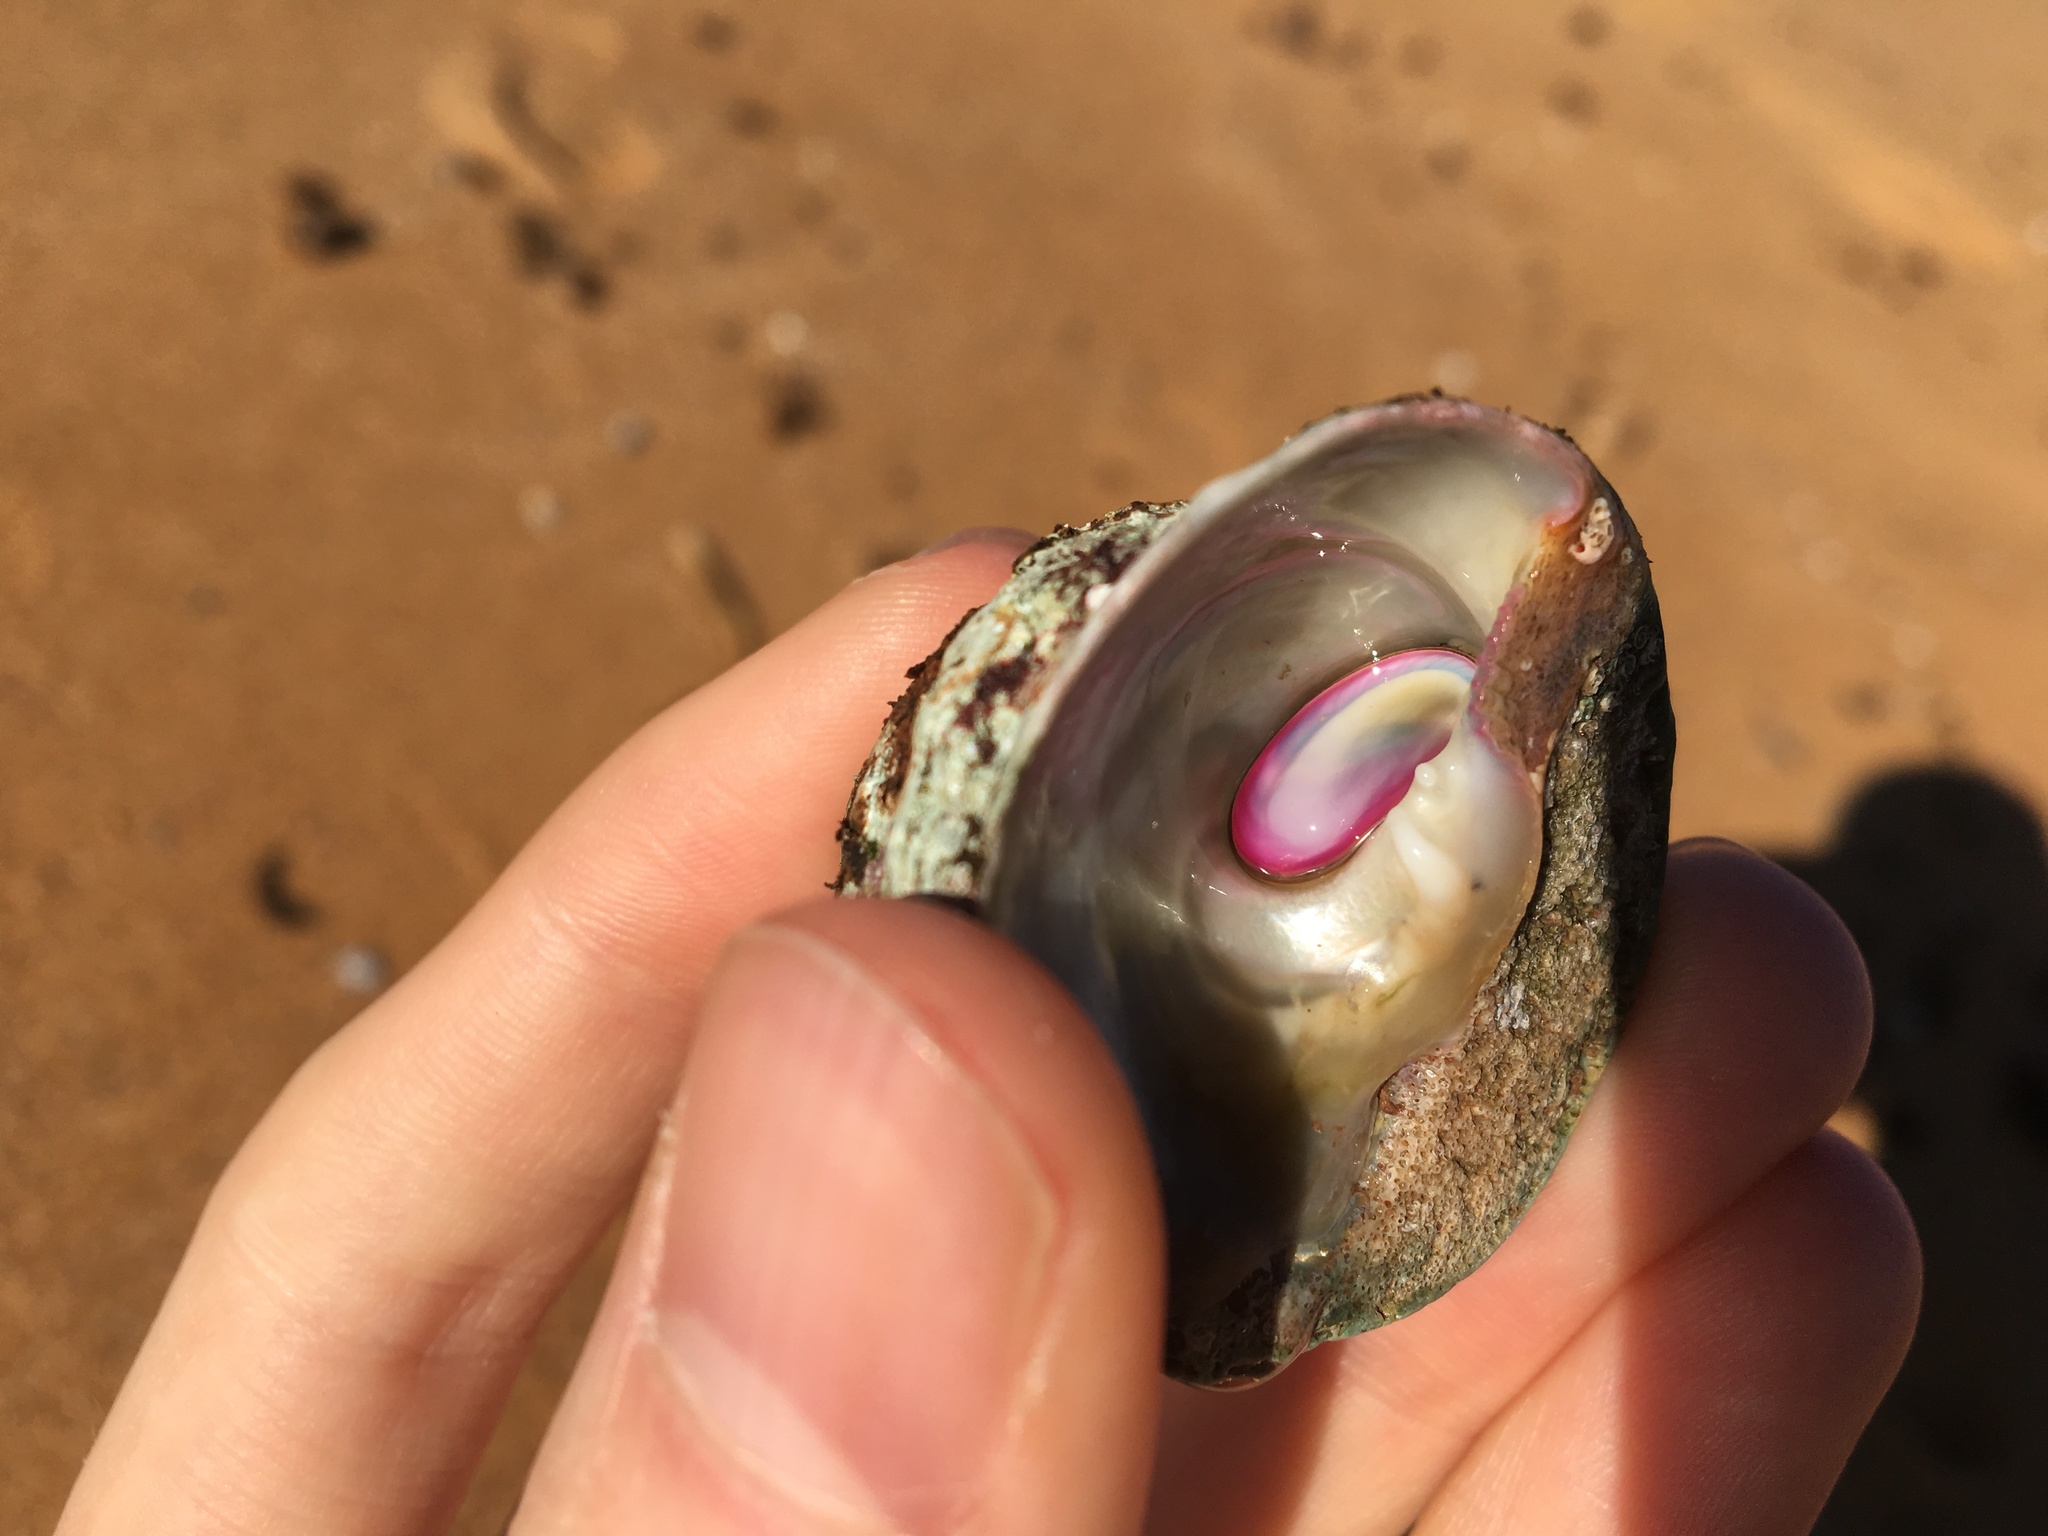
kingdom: Animalia
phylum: Mollusca
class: Gastropoda
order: Trochida
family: Turbinidae
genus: Astralium
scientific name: Astralium tentoriiforme
